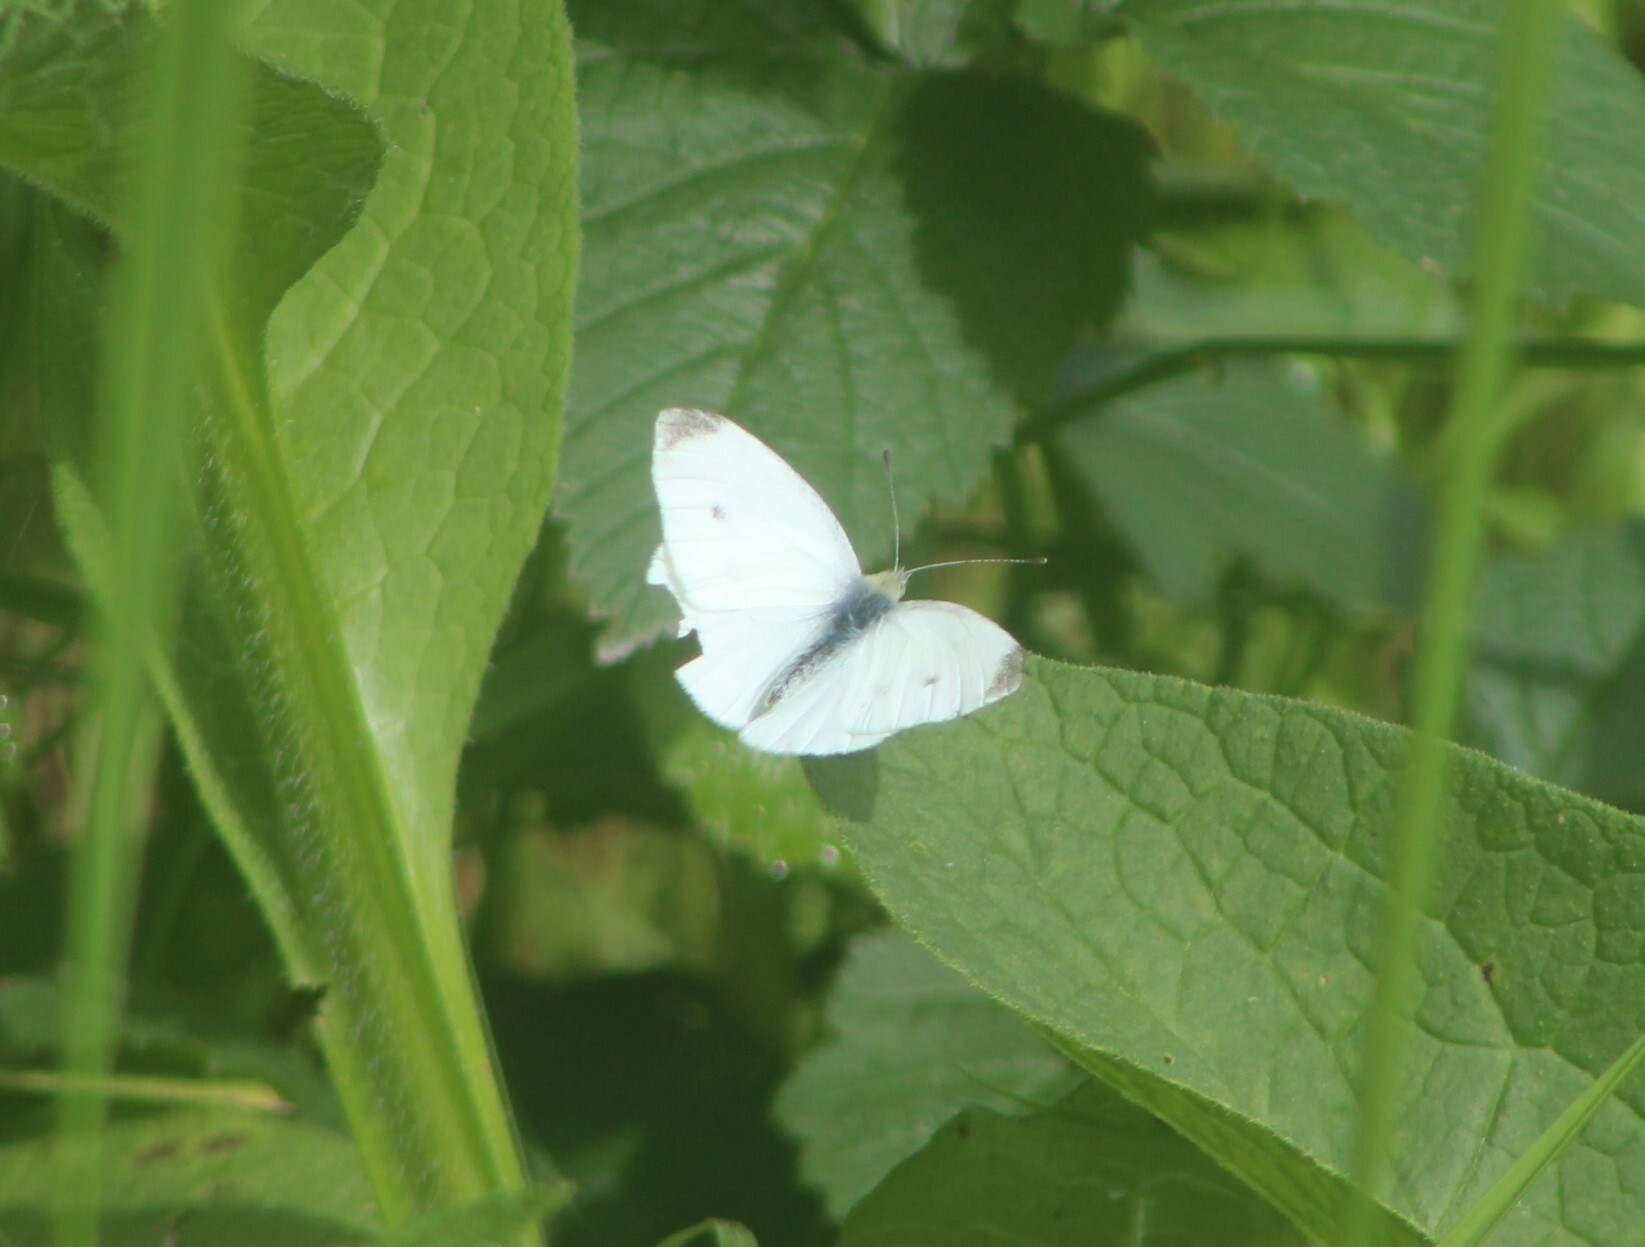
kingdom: Animalia
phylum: Arthropoda
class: Insecta
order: Lepidoptera
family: Pieridae
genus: Pieris
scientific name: Pieris rapae
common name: Small white
